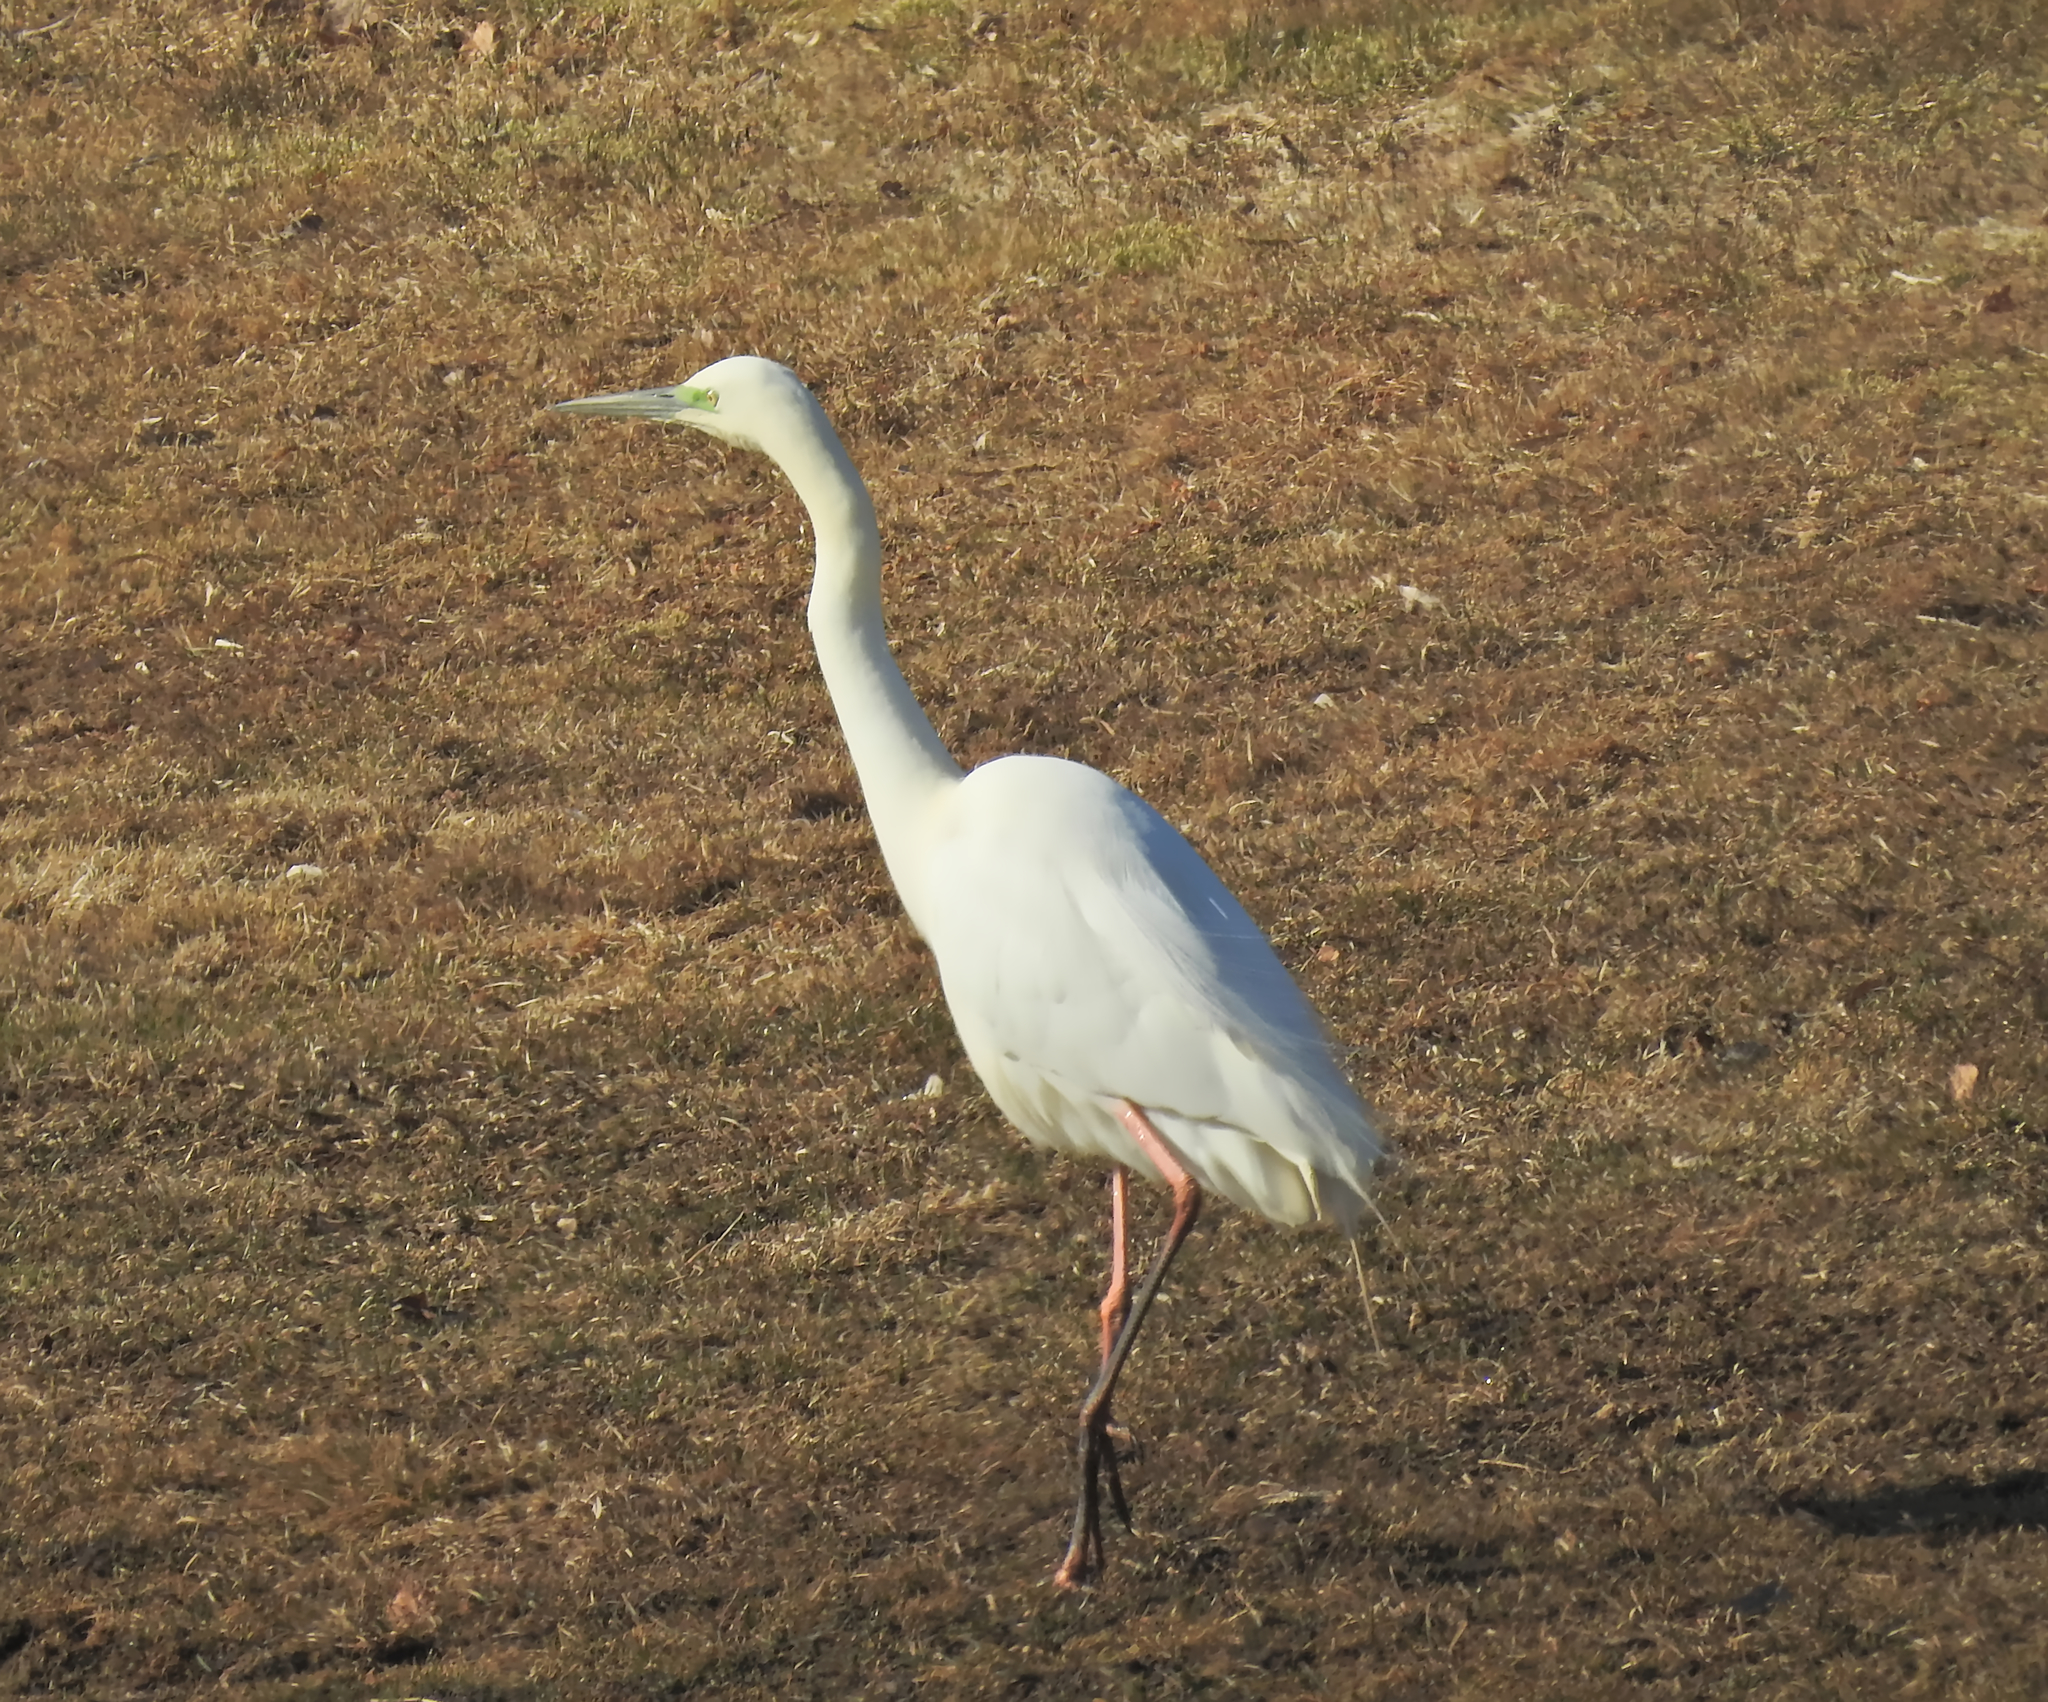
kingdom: Animalia
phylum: Chordata
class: Aves
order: Pelecaniformes
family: Ardeidae
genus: Ardea
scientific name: Ardea alba
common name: Great egret
